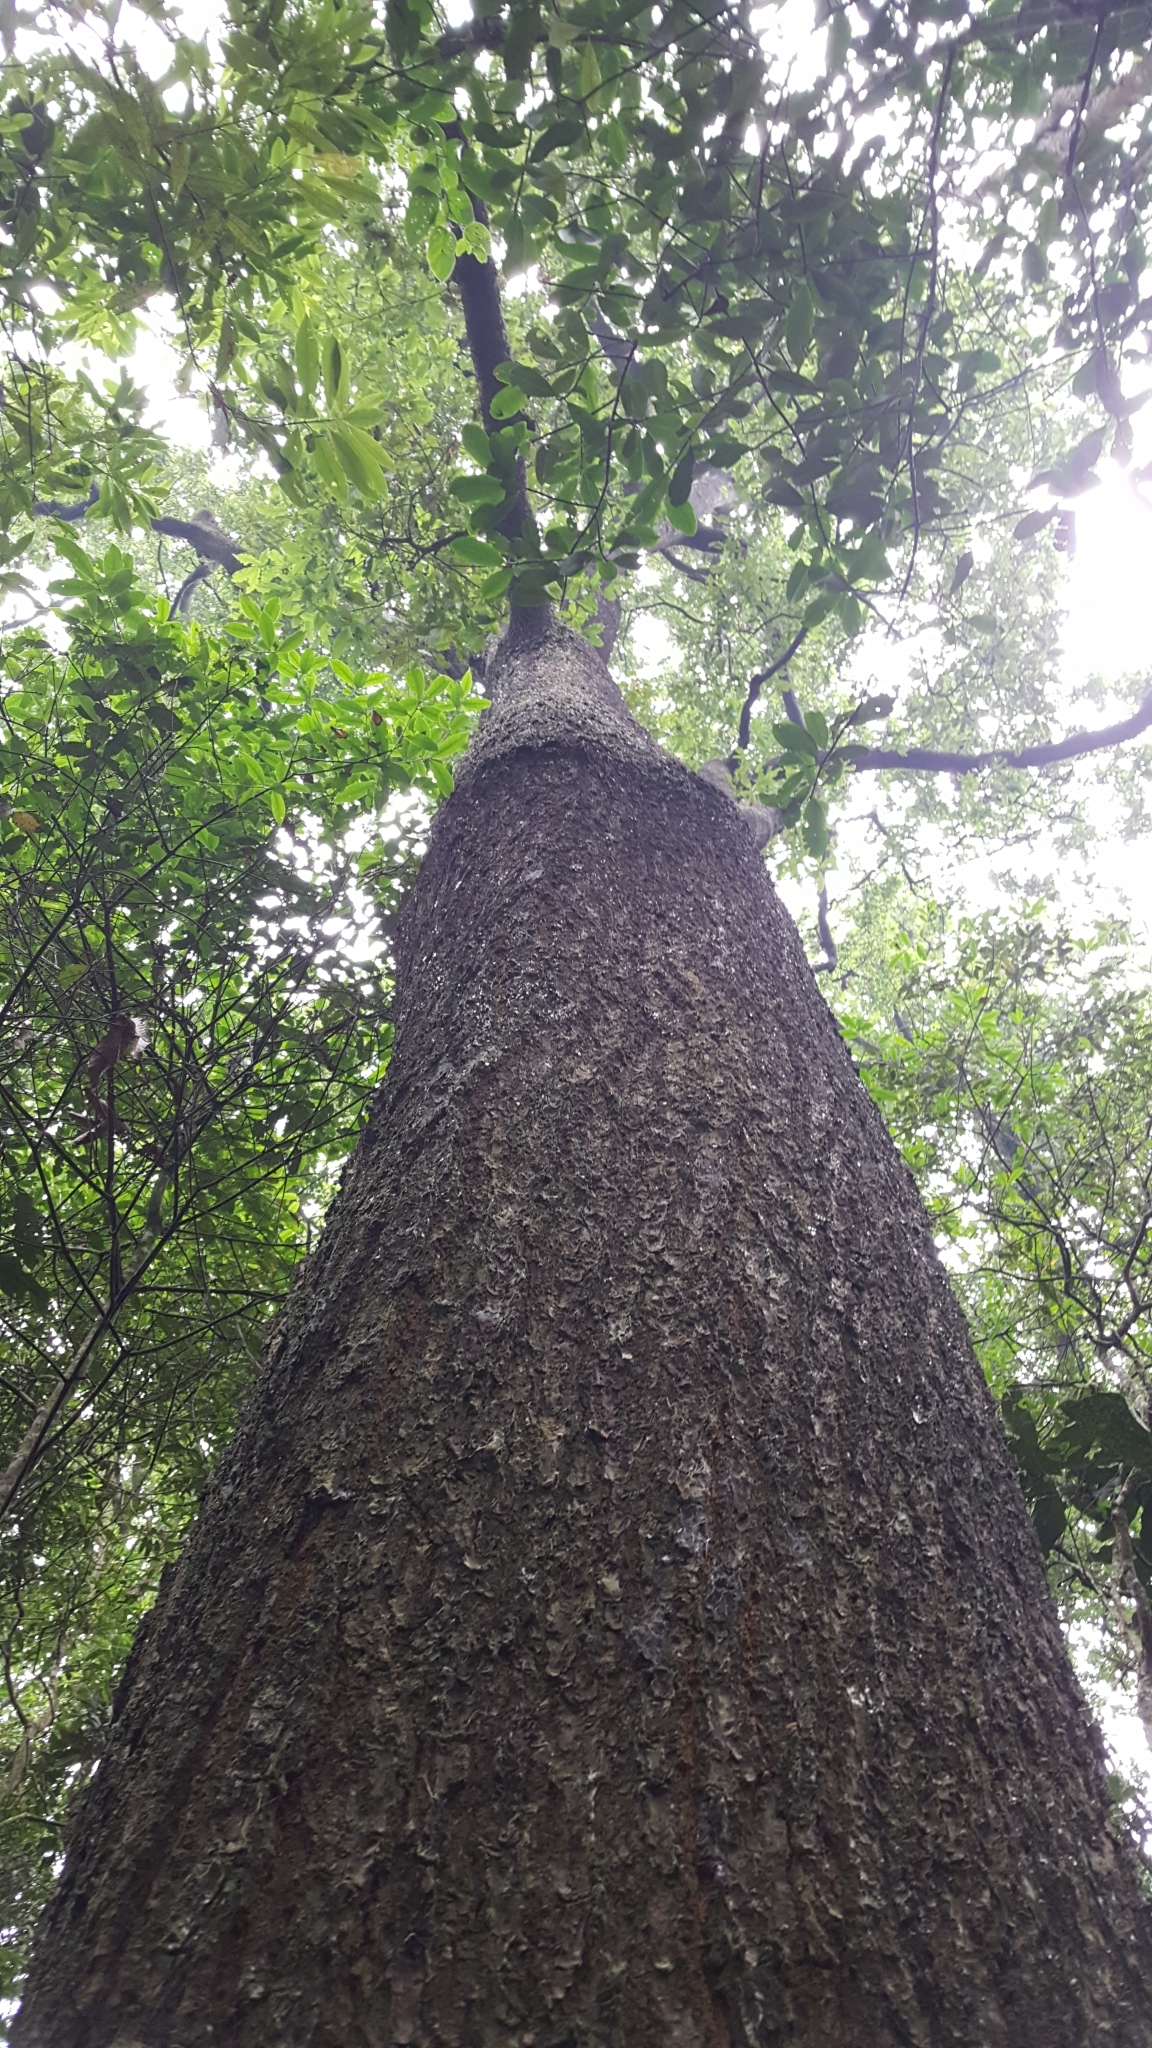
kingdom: Plantae
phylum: Tracheophyta
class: Magnoliopsida
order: Fagales
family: Fagaceae
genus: Quercus
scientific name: Quercus humboldtii
